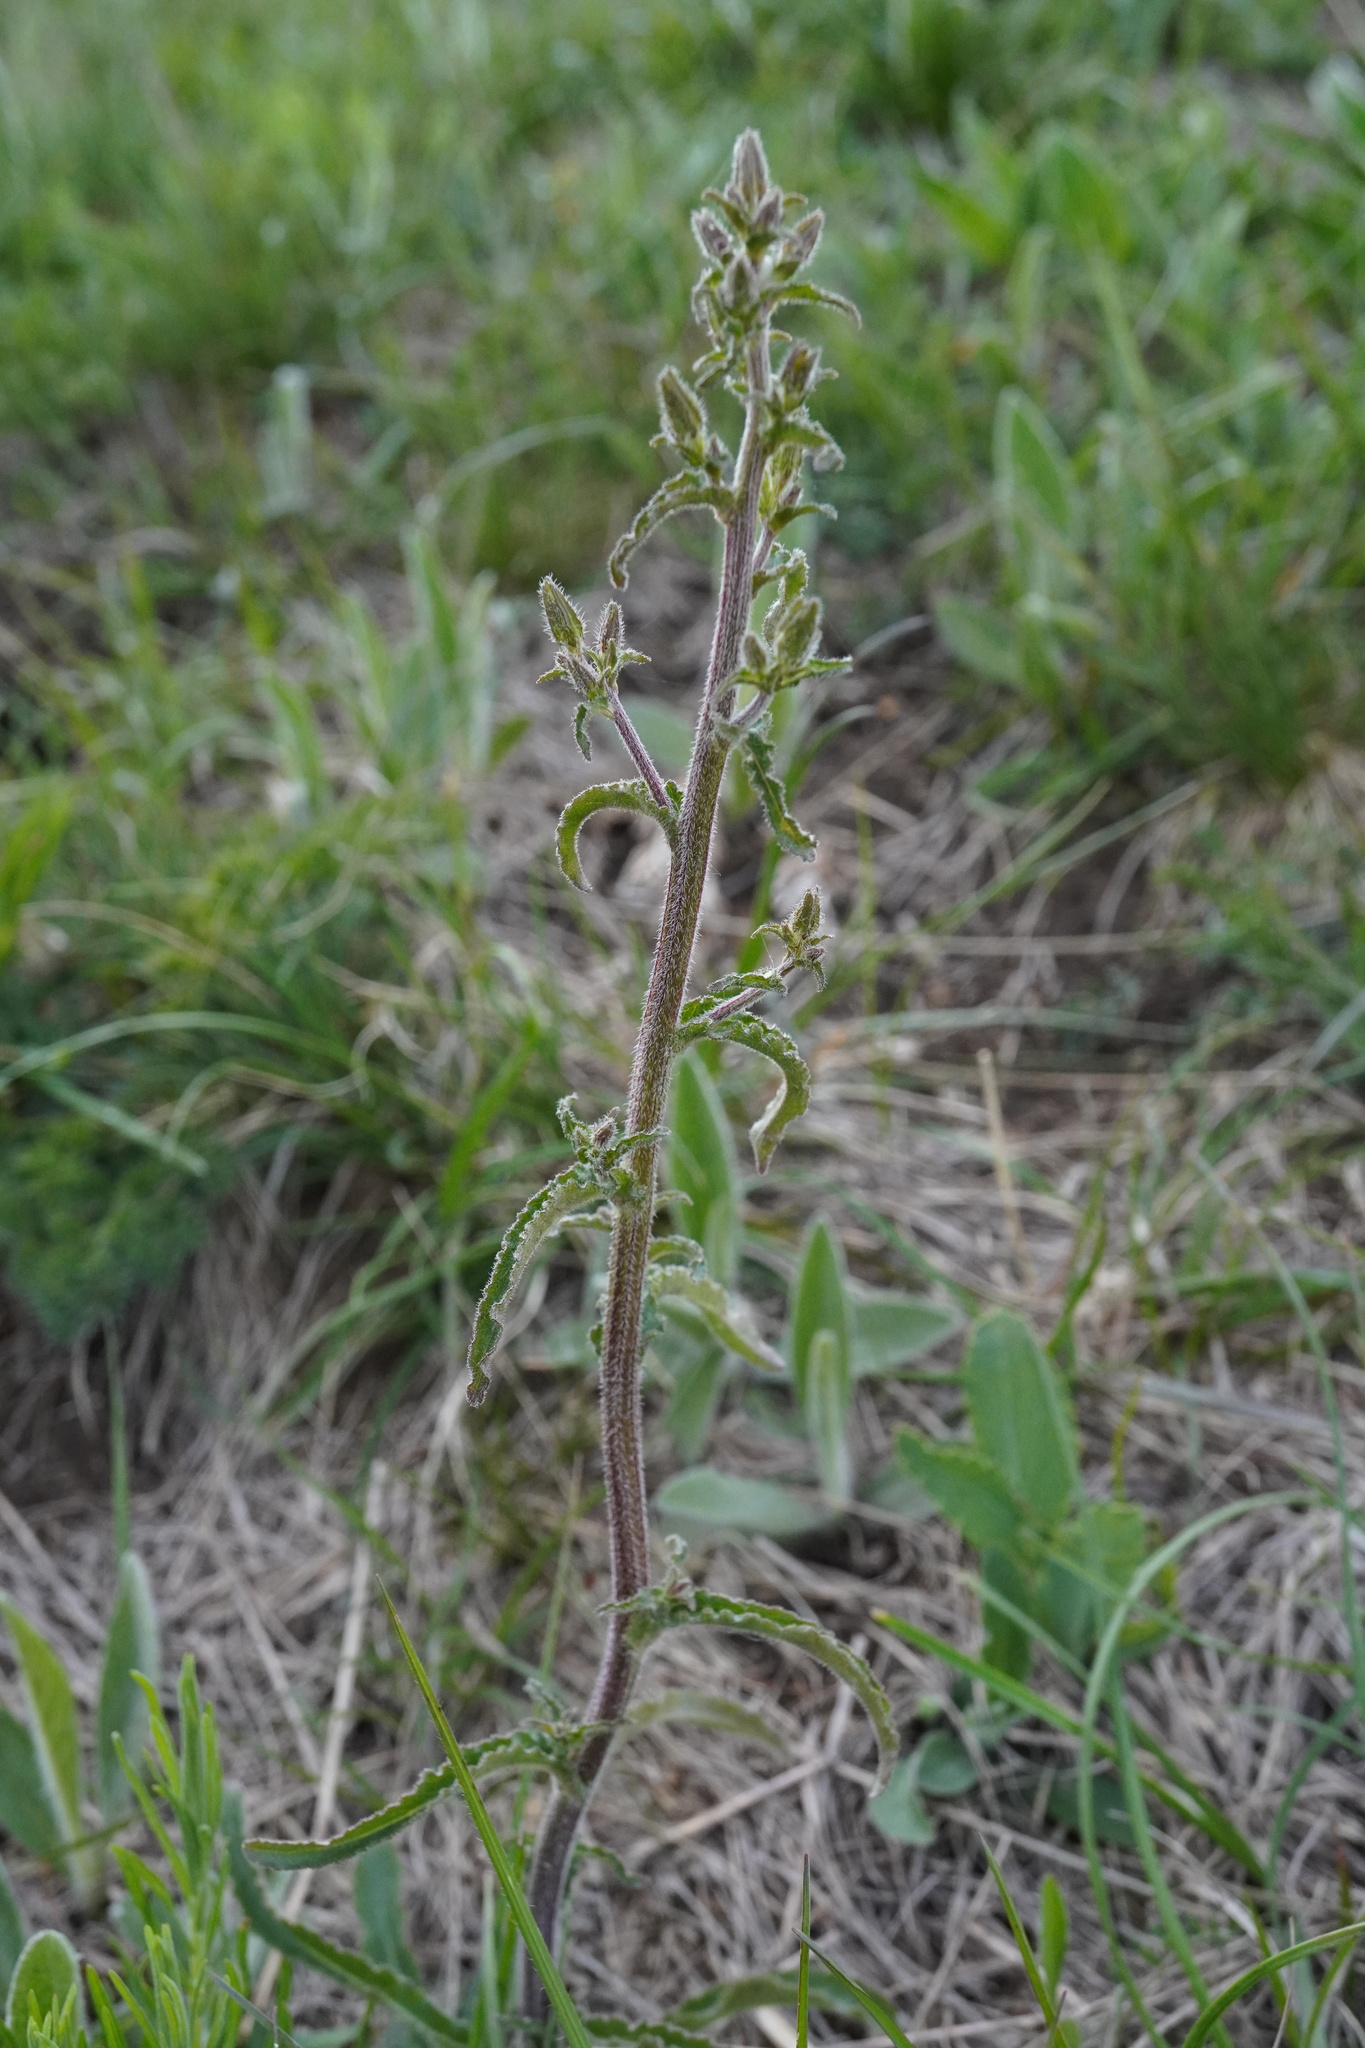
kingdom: Plantae
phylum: Tracheophyta
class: Magnoliopsida
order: Asterales
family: Campanulaceae
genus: Campanula
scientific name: Campanula sibirica
